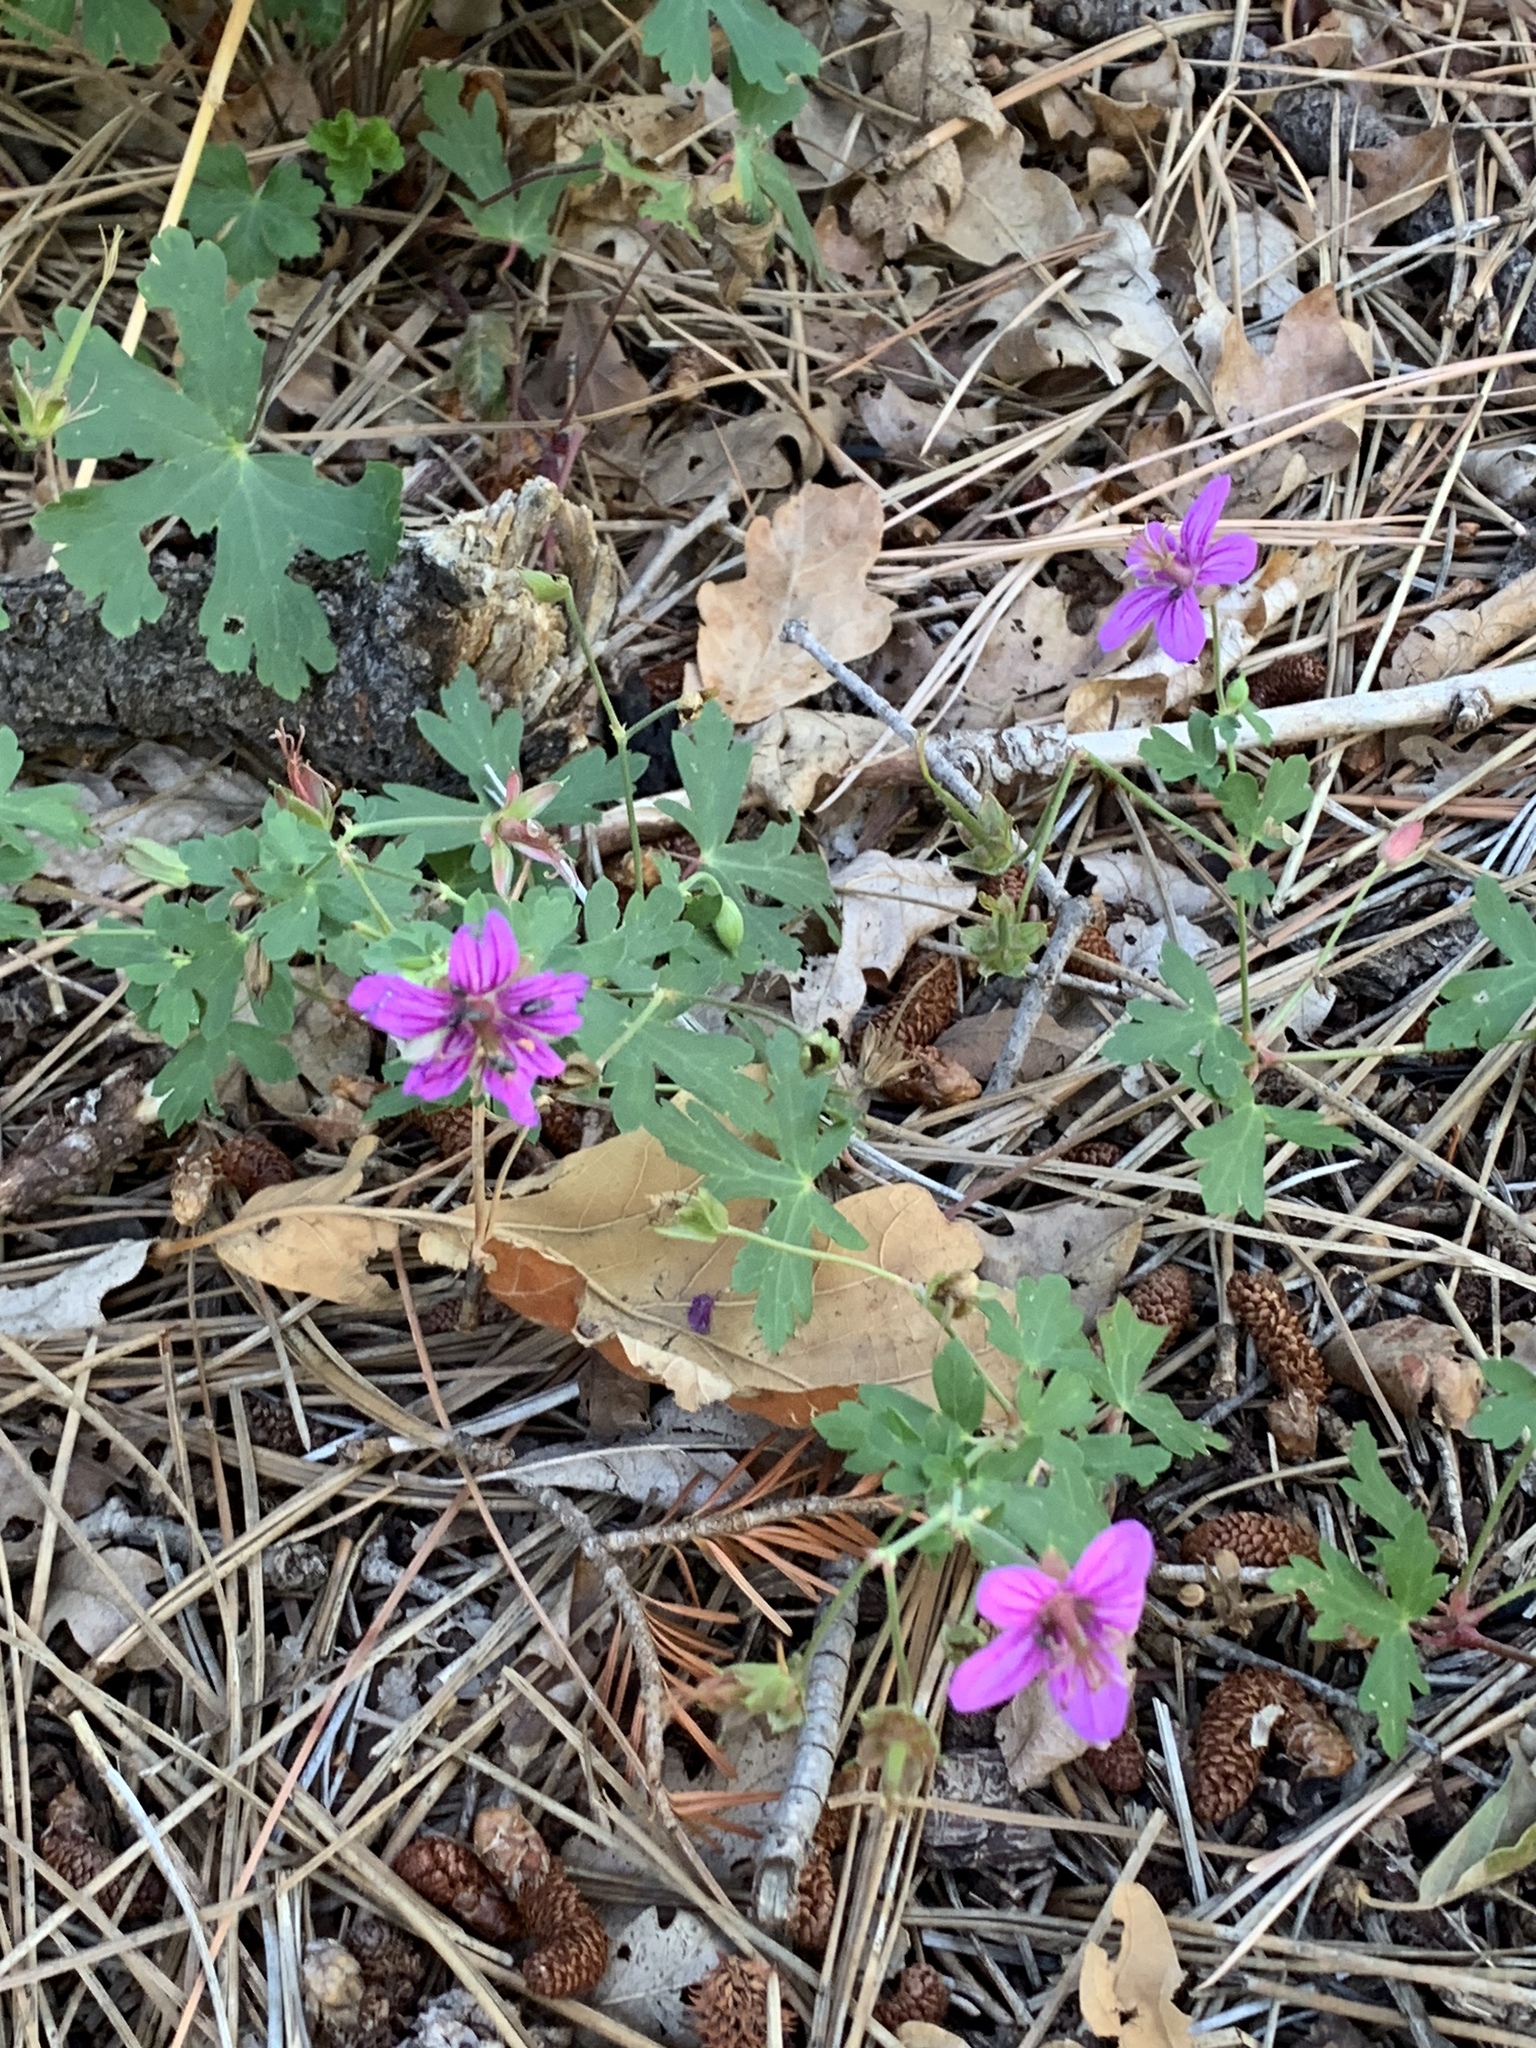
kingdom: Plantae
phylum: Tracheophyta
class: Magnoliopsida
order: Geraniales
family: Geraniaceae
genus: Geranium
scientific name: Geranium caespitosum
